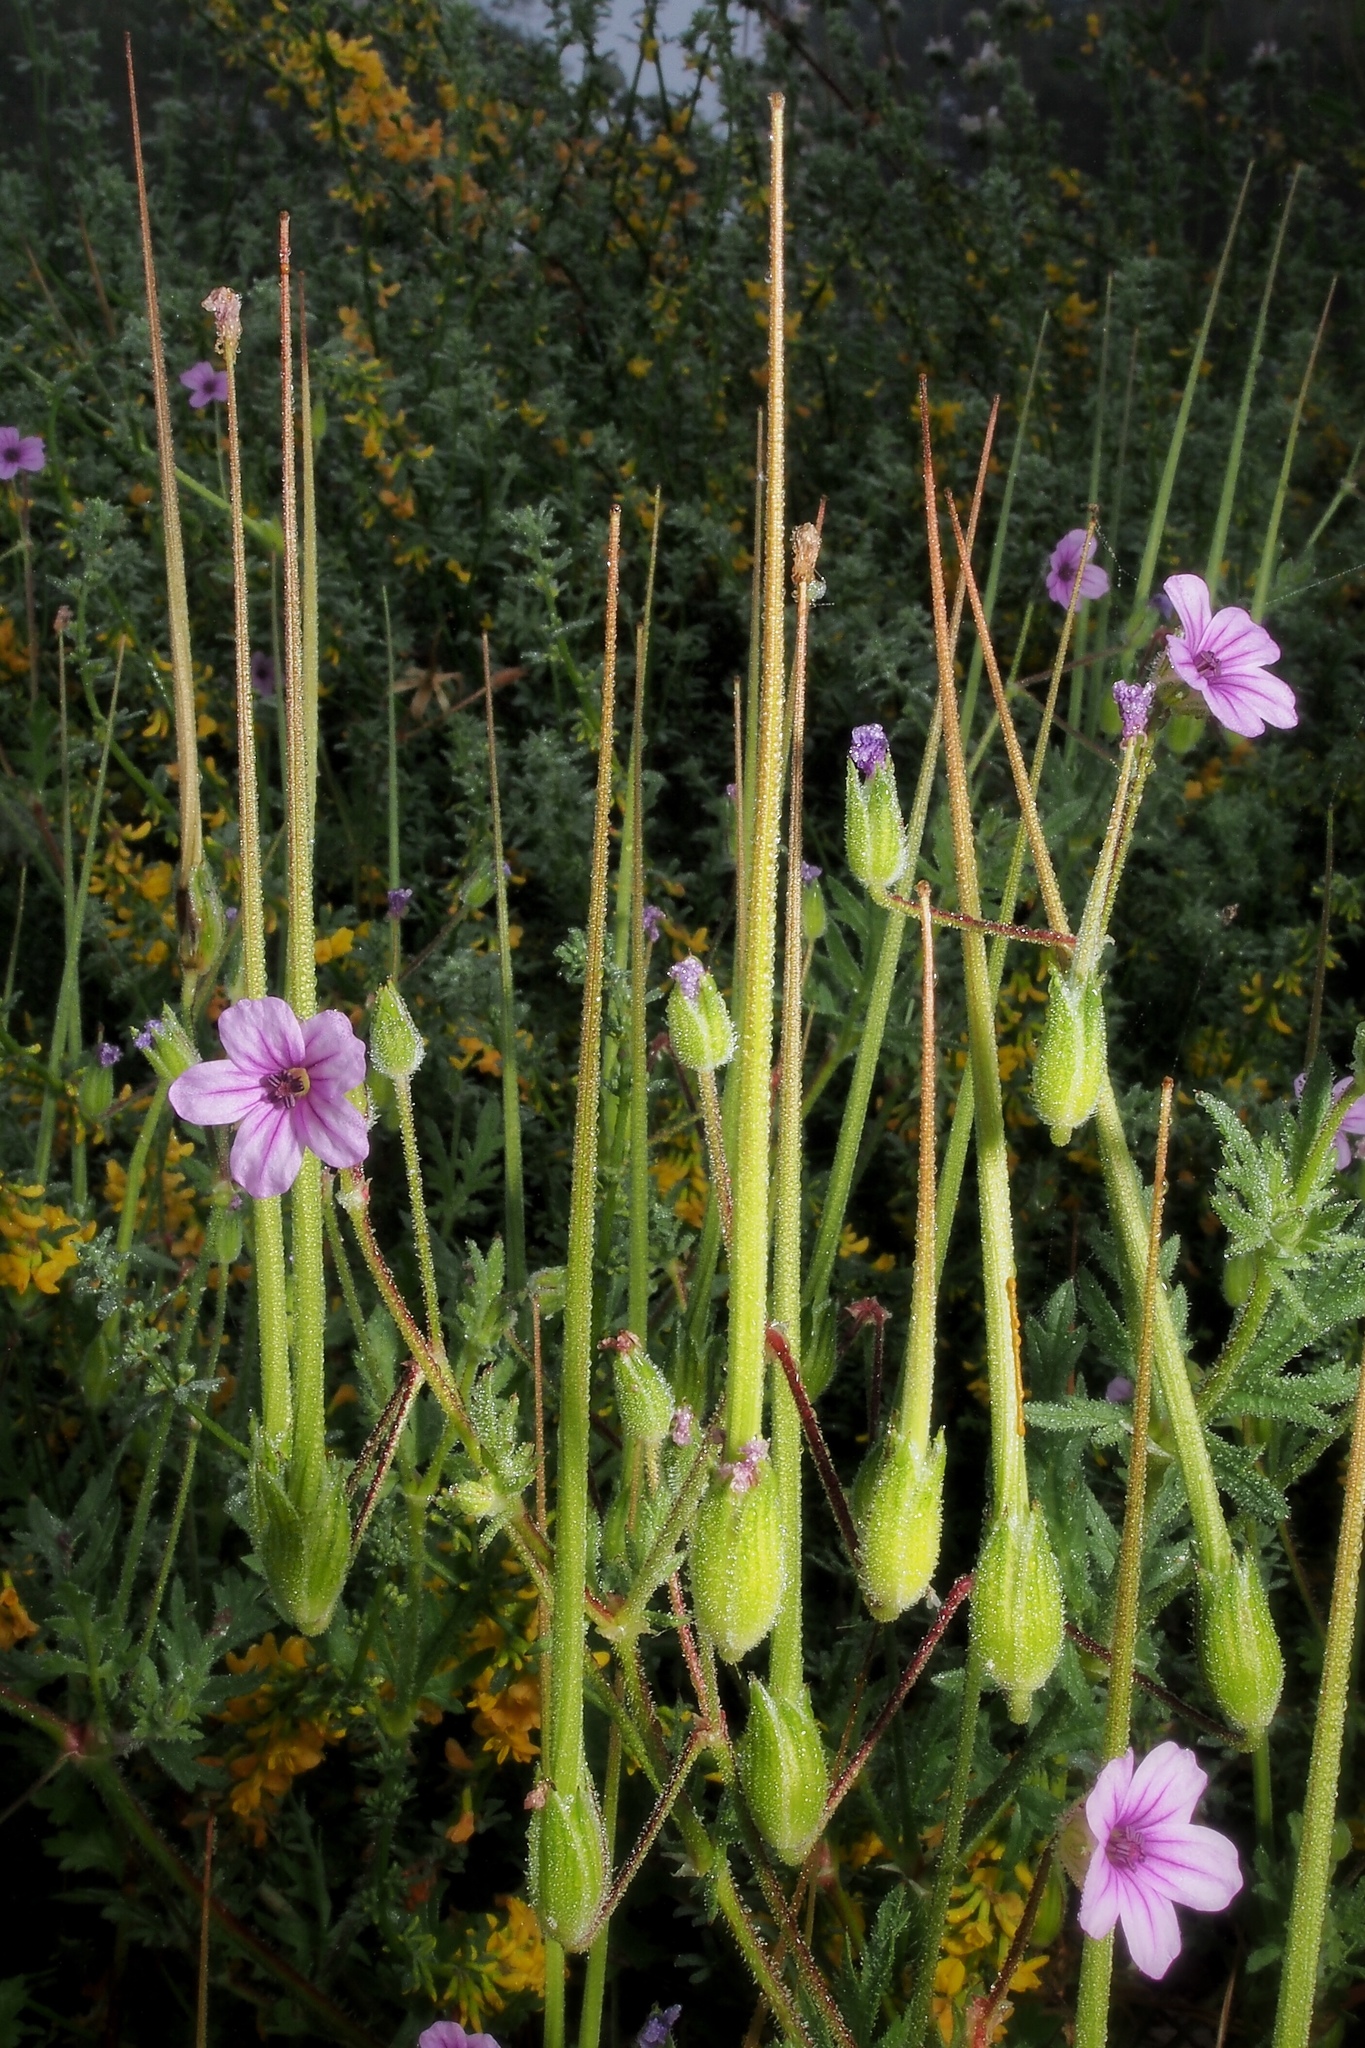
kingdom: Plantae
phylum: Tracheophyta
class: Magnoliopsida
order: Geraniales
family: Geraniaceae
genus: Erodium
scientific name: Erodium botrys
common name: Mediterranean stork's-bill
